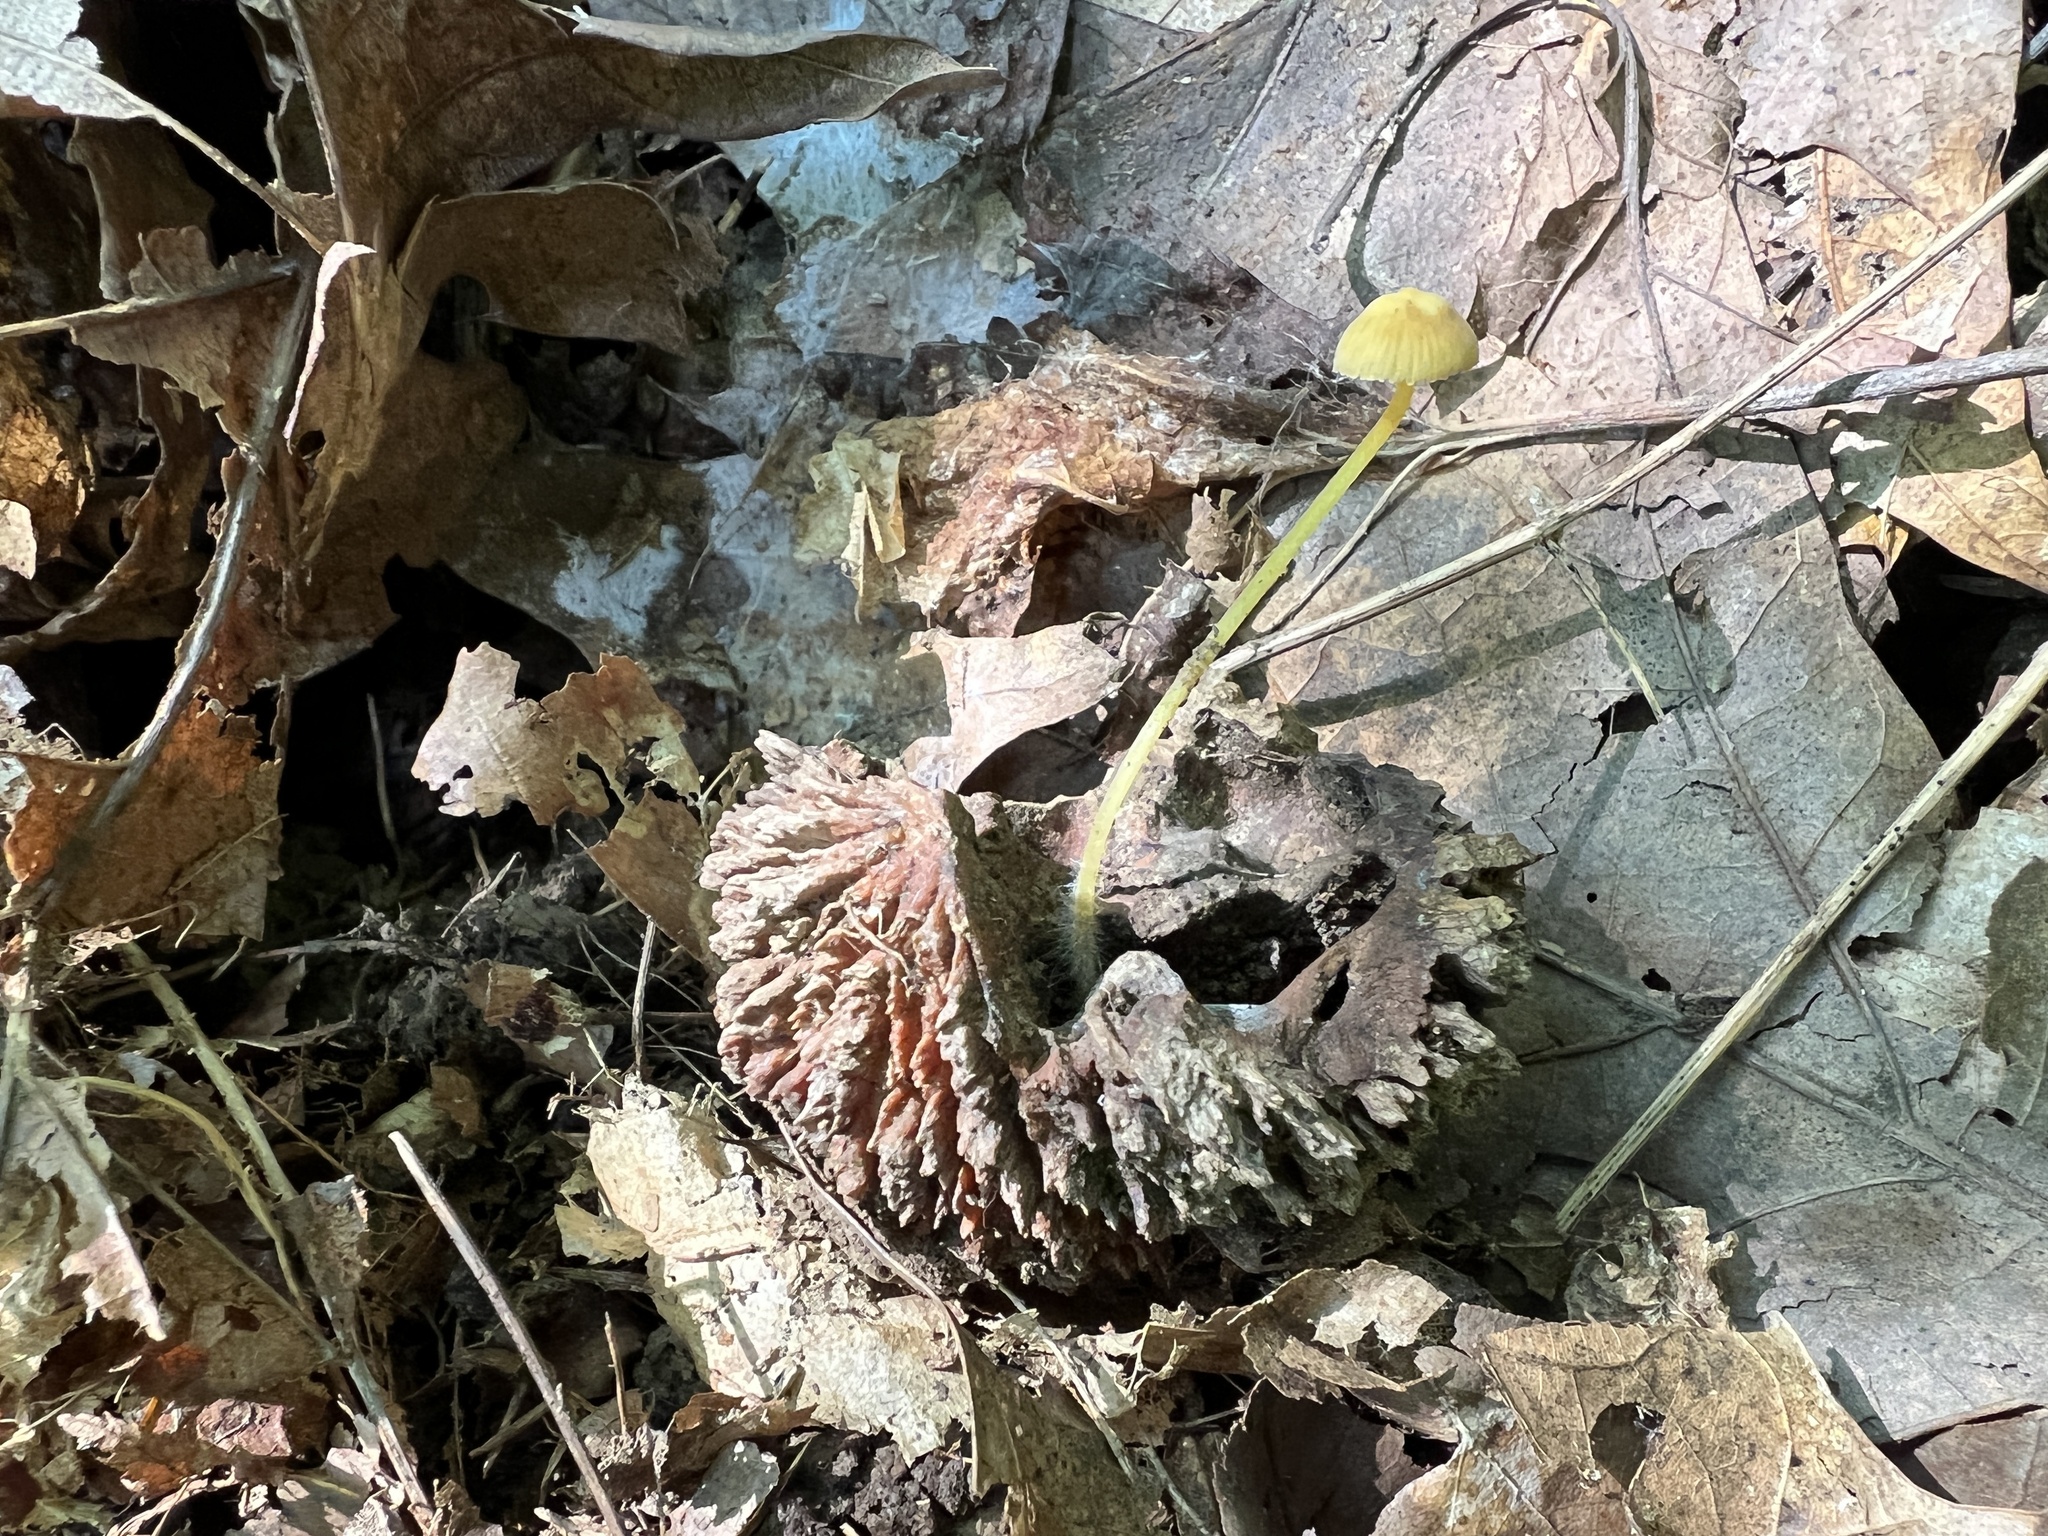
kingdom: Fungi
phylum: Basidiomycota
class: Agaricomycetes
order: Agaricales
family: Mycenaceae
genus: Mycena
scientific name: Mycena crocea
